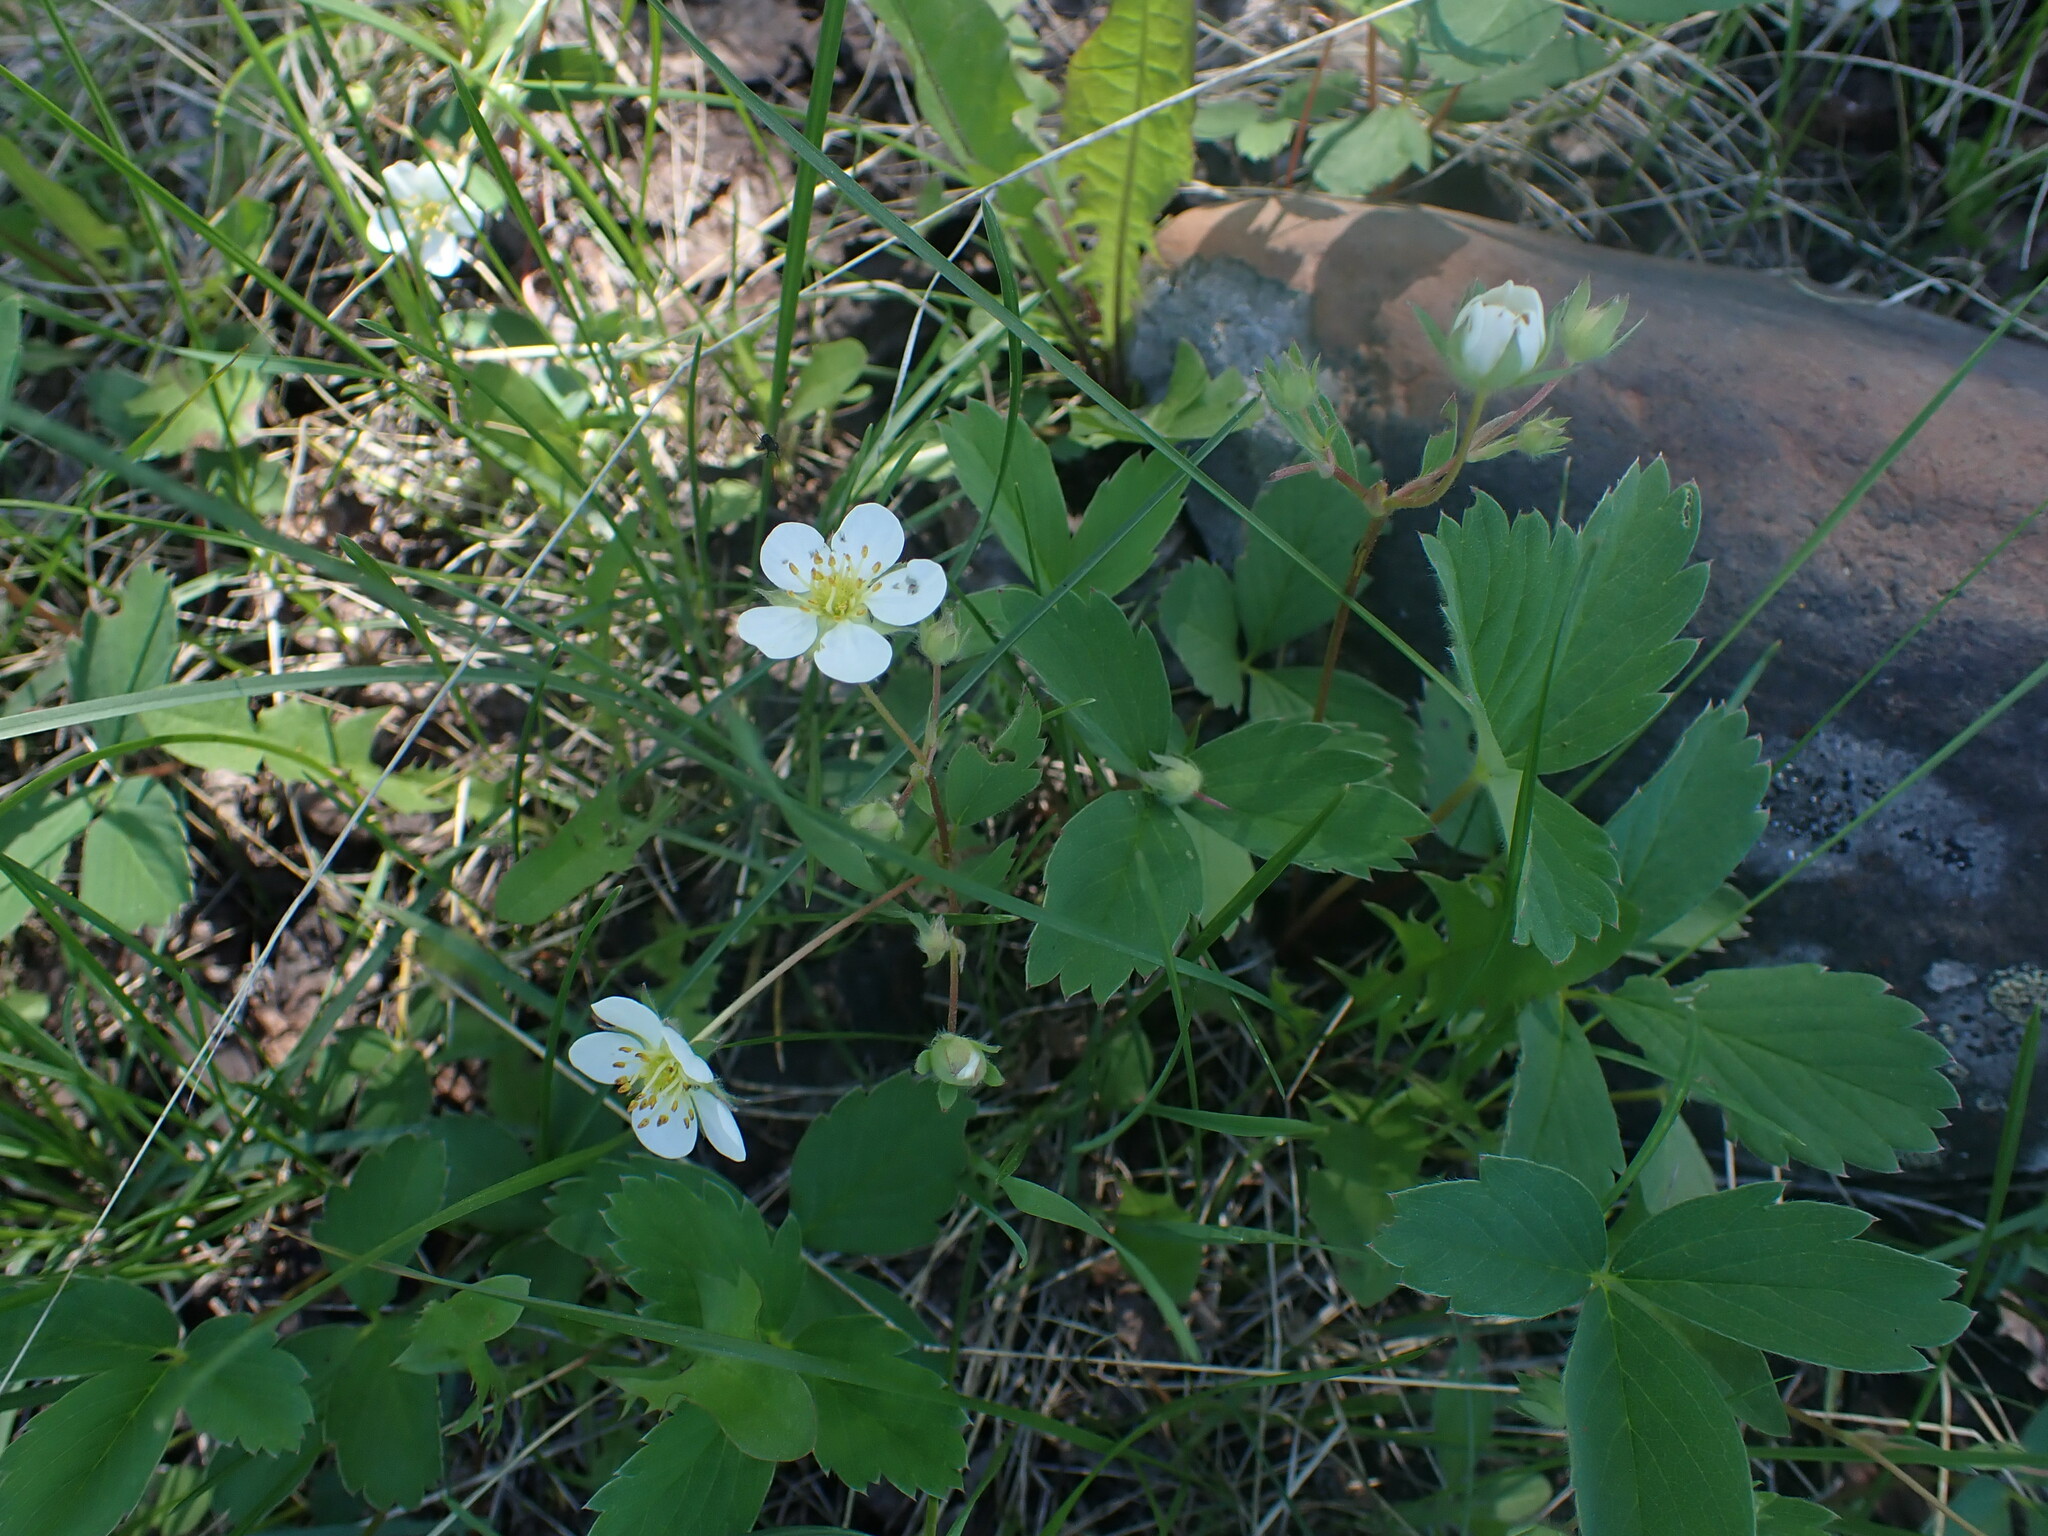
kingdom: Plantae
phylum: Tracheophyta
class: Magnoliopsida
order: Rosales
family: Rosaceae
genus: Fragaria
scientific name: Fragaria virginiana
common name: Thickleaved wild strawberry
